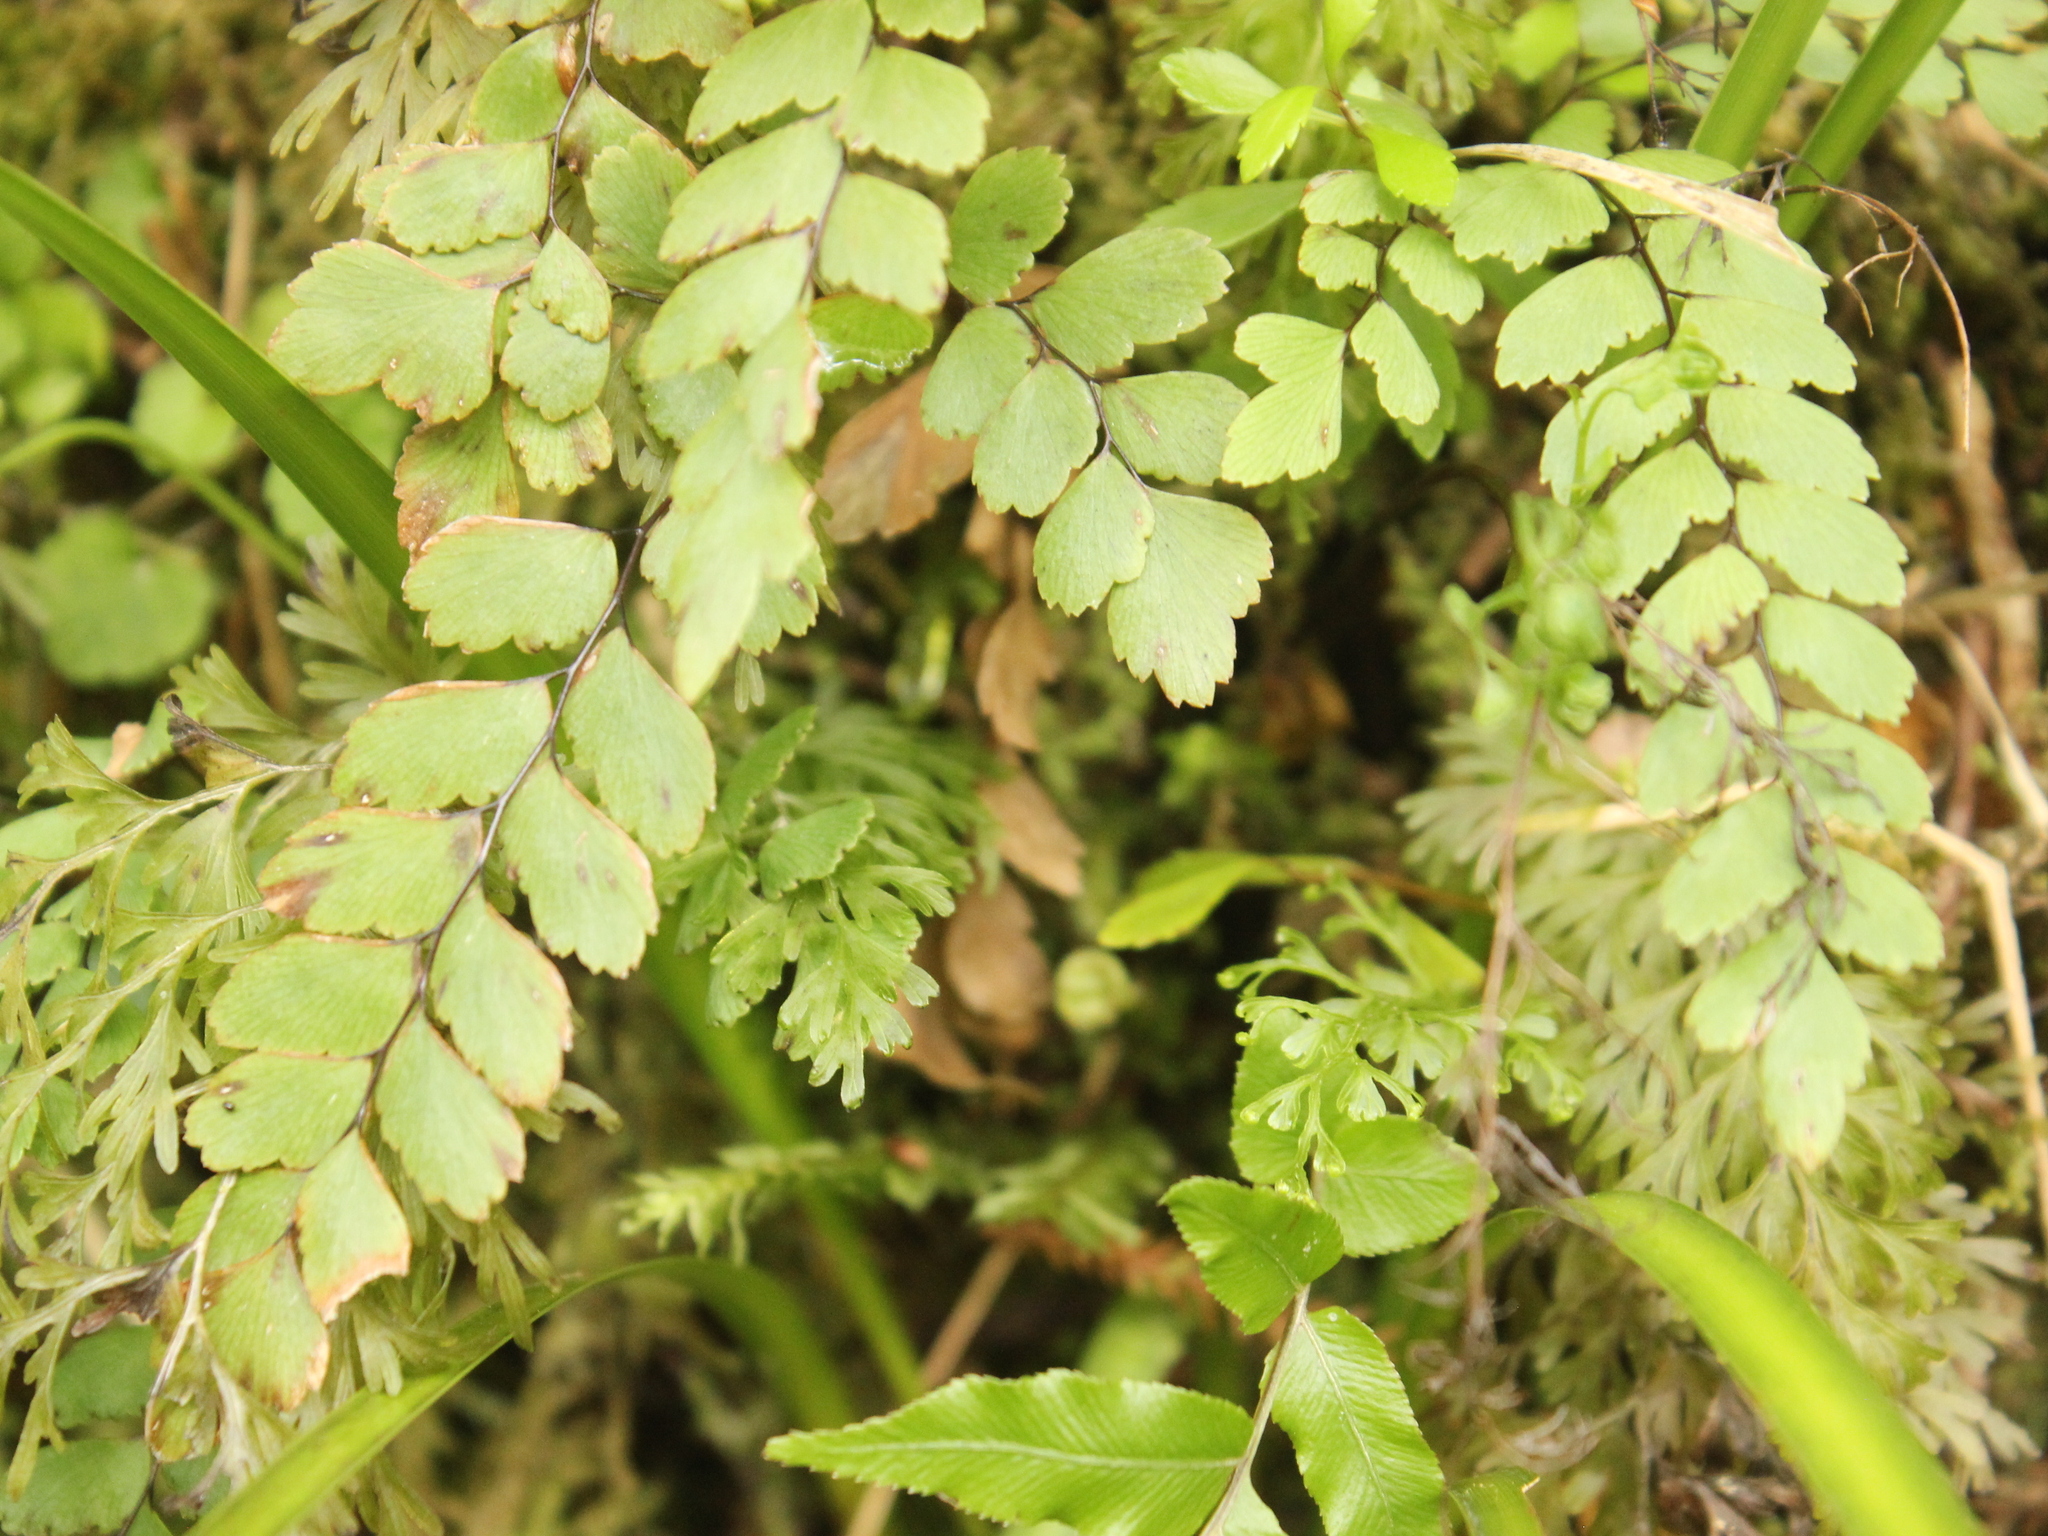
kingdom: Plantae
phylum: Tracheophyta
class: Polypodiopsida
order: Polypodiales
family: Pteridaceae
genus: Adiantum
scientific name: Adiantum cunninghamii
